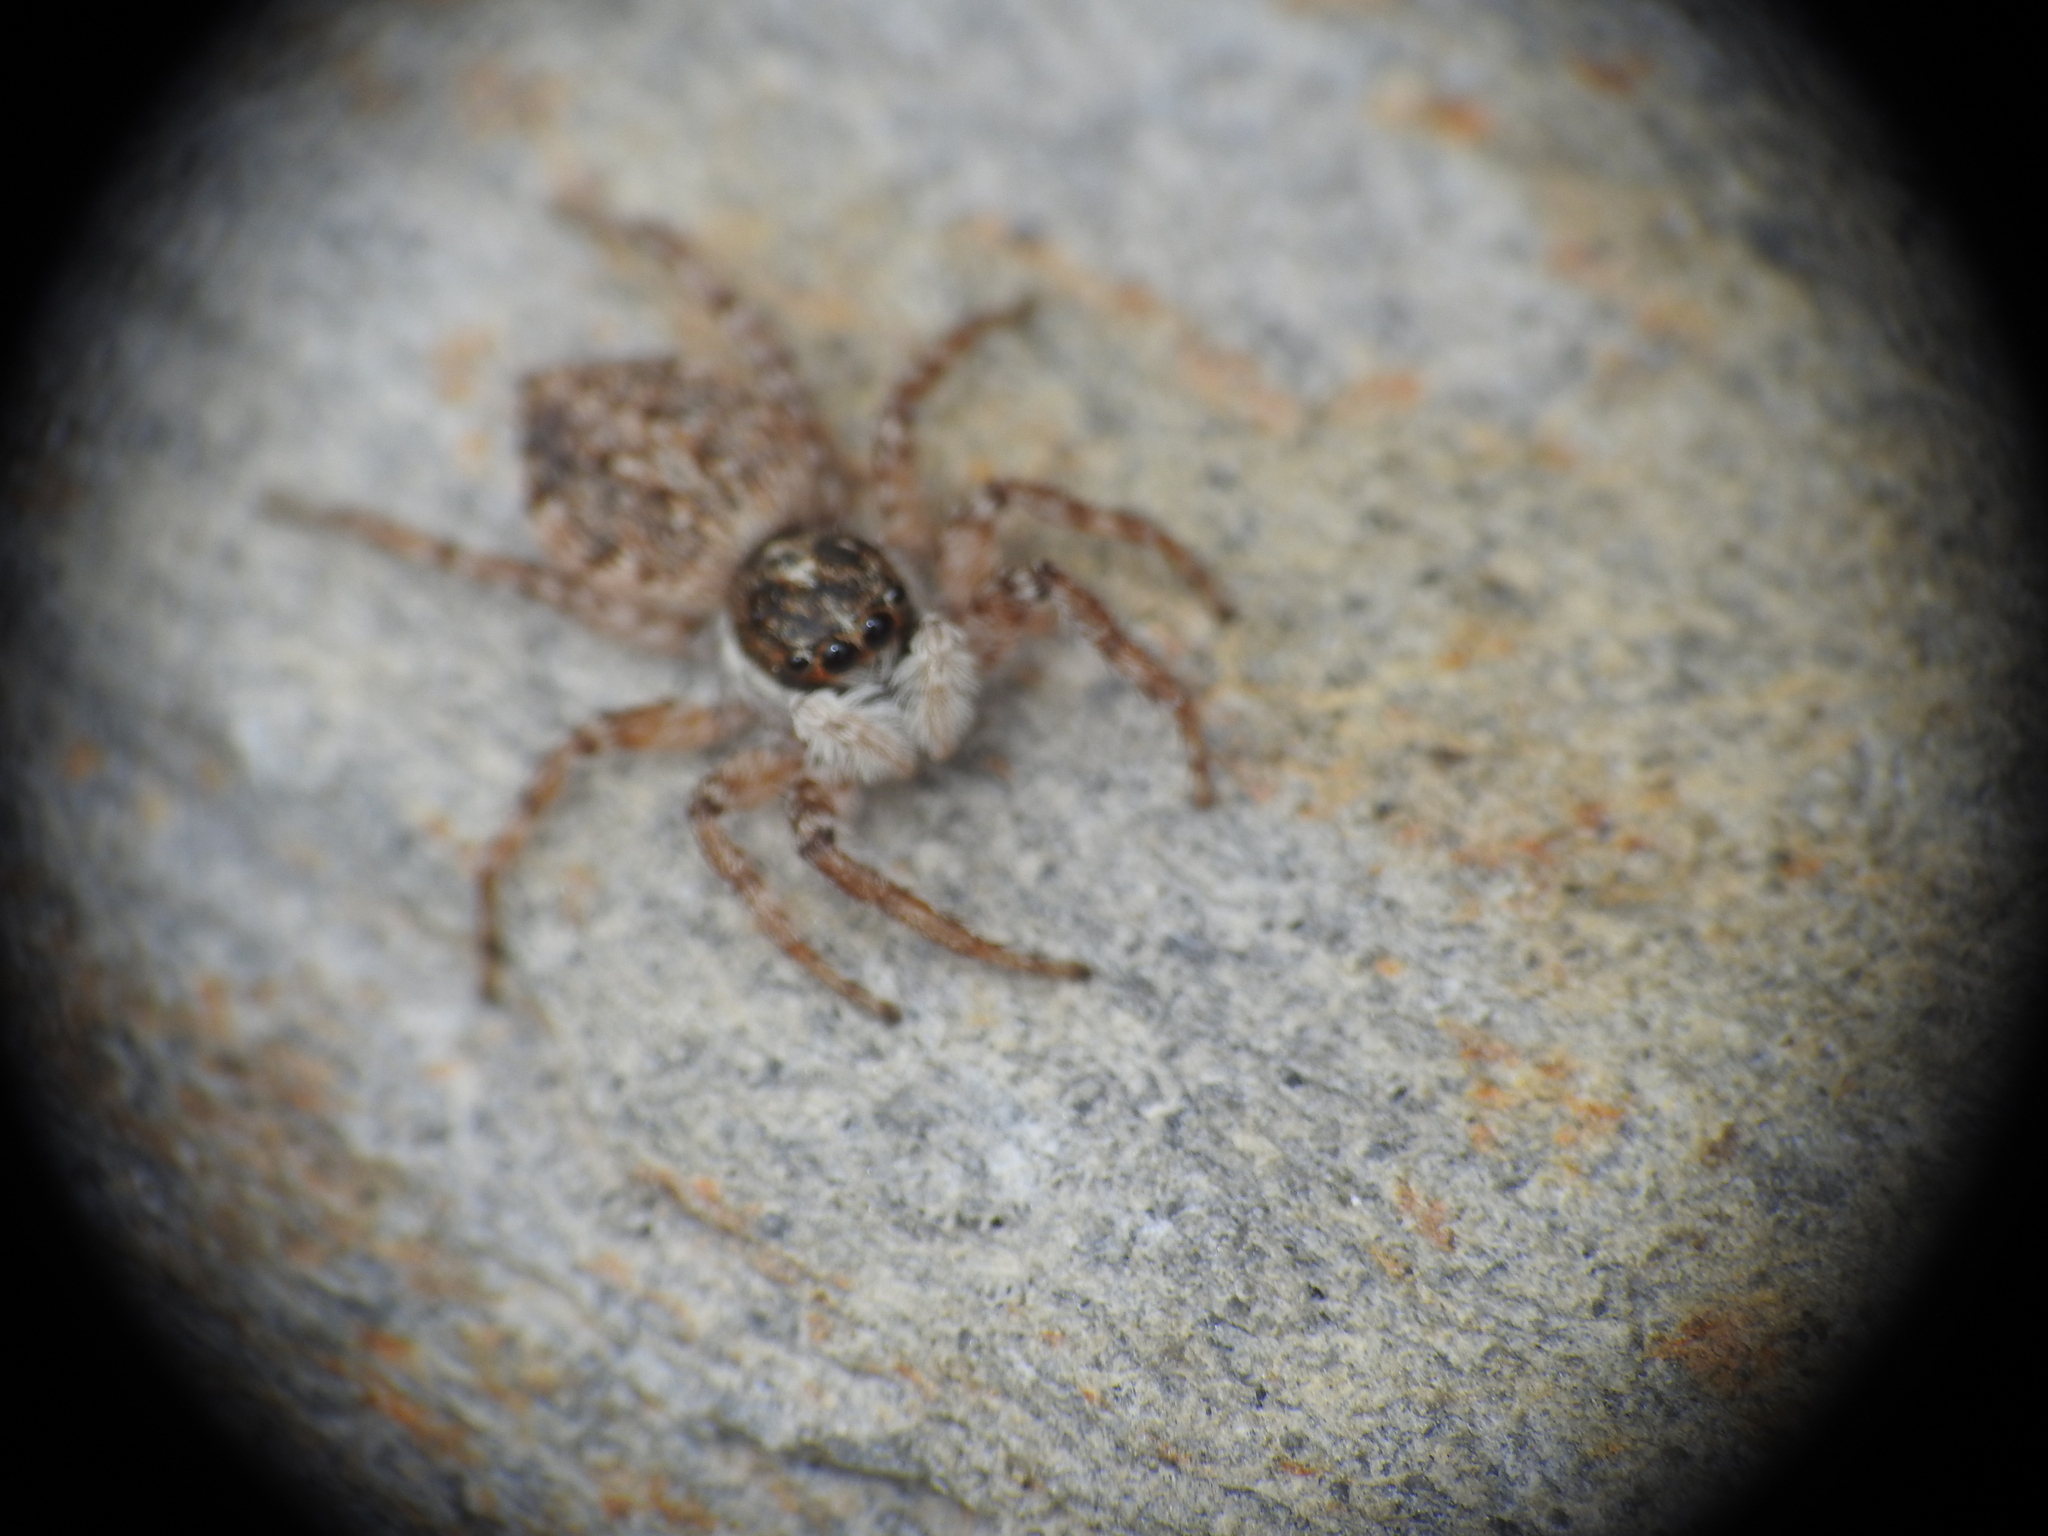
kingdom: Animalia
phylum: Arthropoda
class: Arachnida
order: Araneae
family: Salticidae
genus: Menemerus
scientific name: Menemerus semilimbatus
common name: Jumping spider
